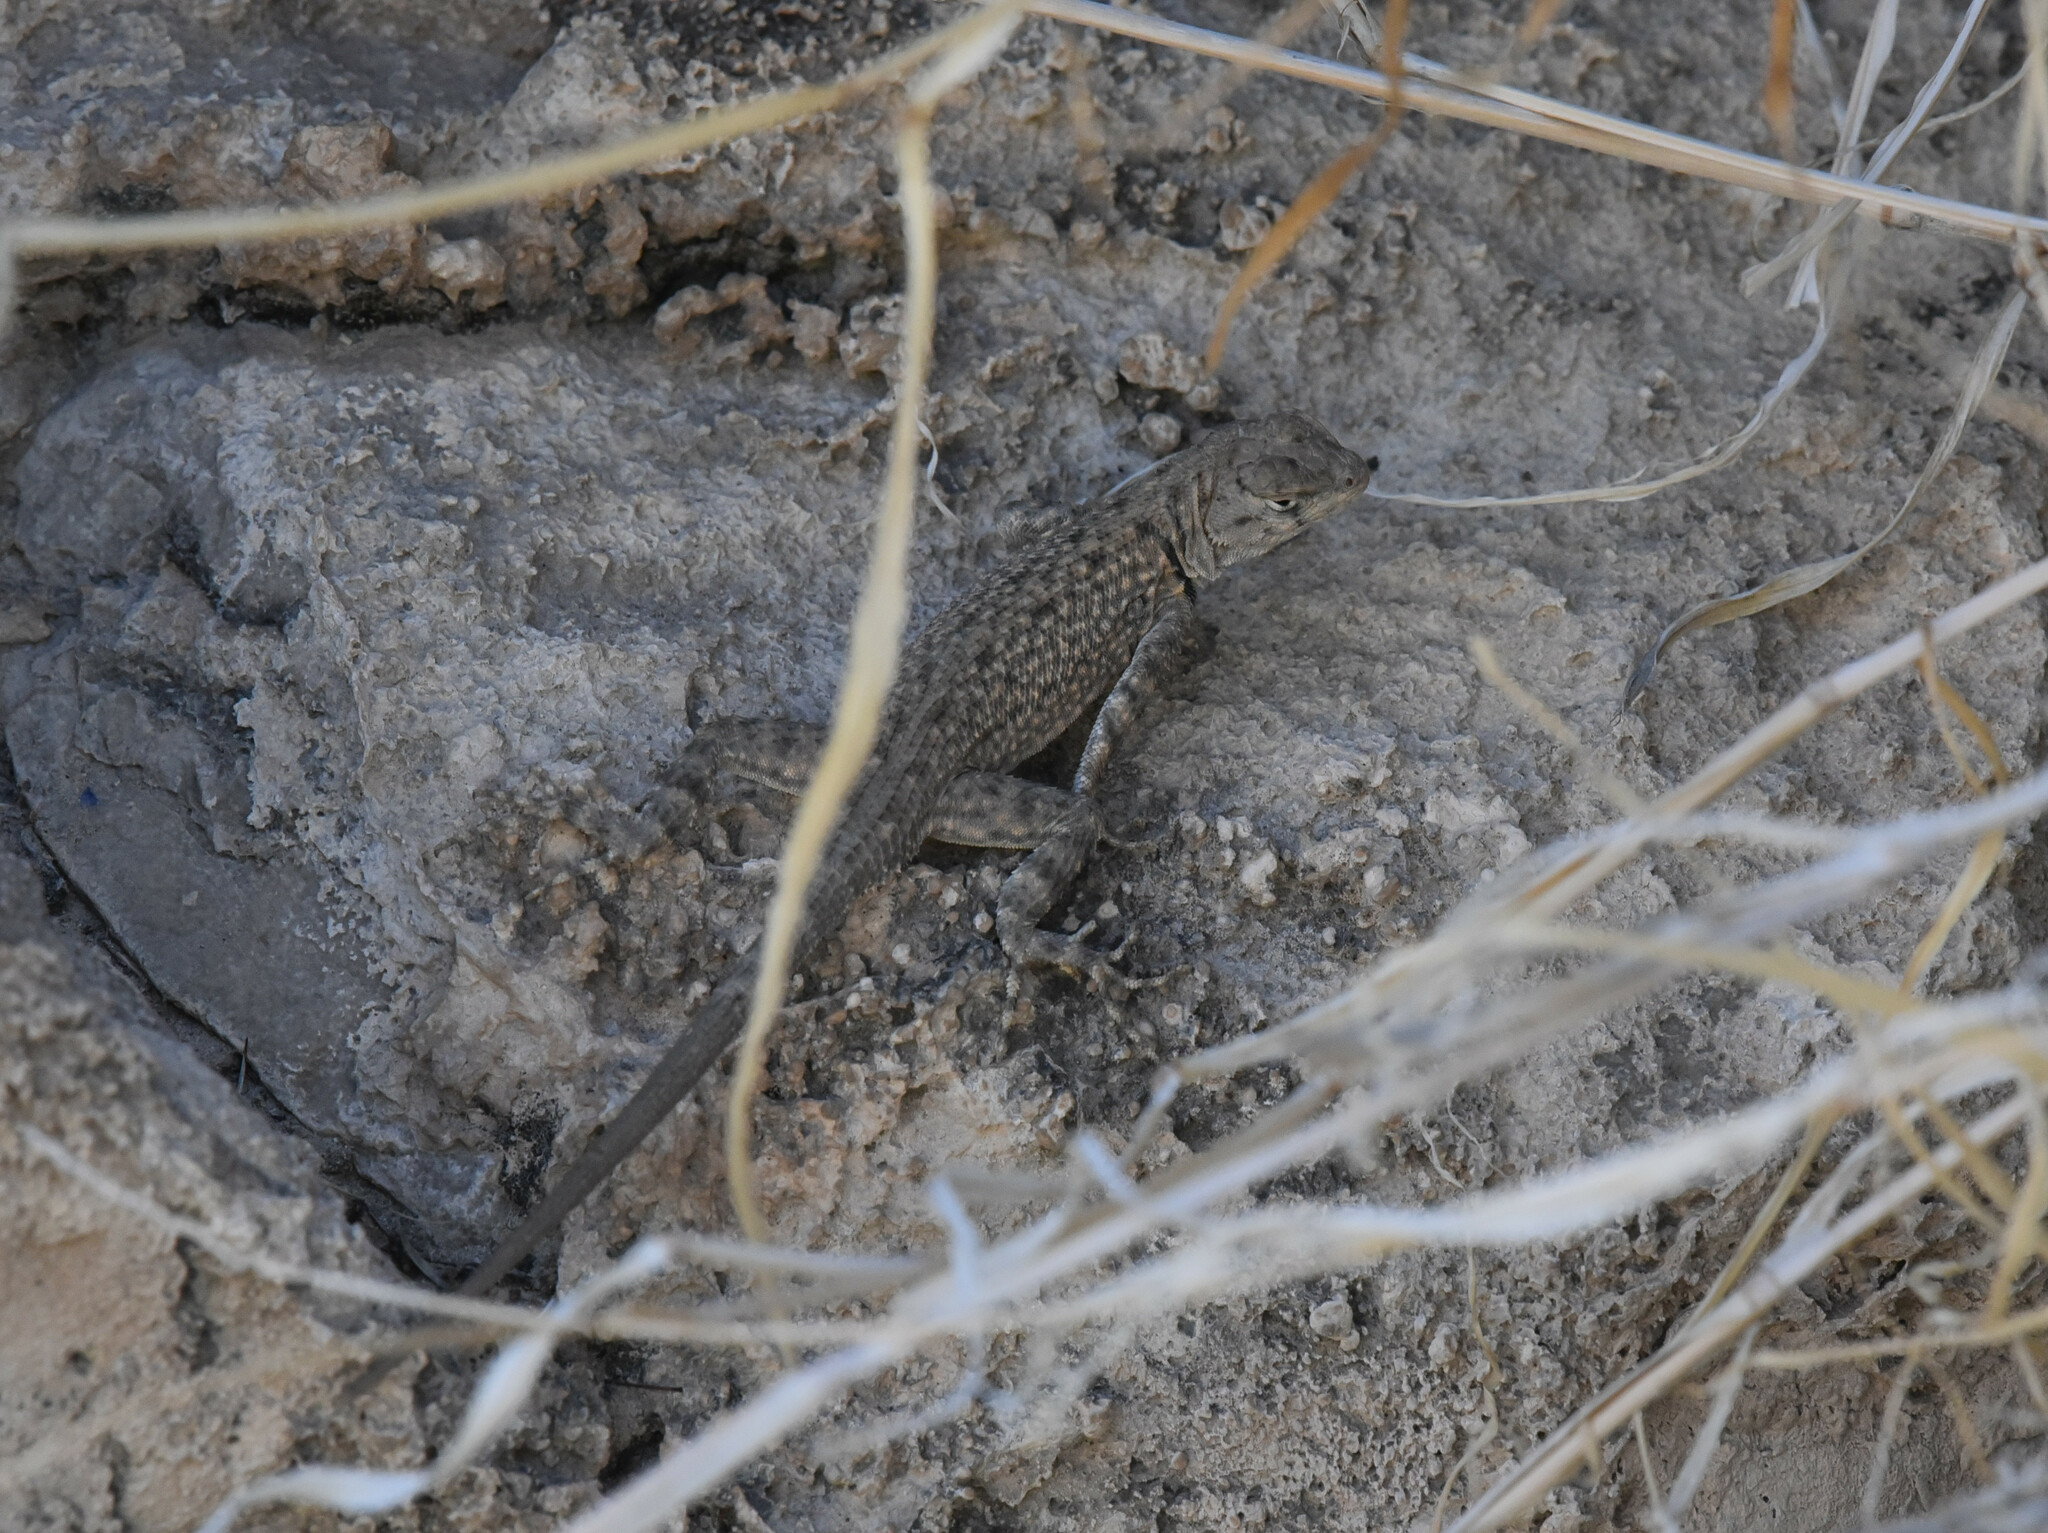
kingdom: Animalia
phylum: Chordata
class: Squamata
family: Phrynosomatidae
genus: Sceloporus
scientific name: Sceloporus merriami
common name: Canyon lizard
